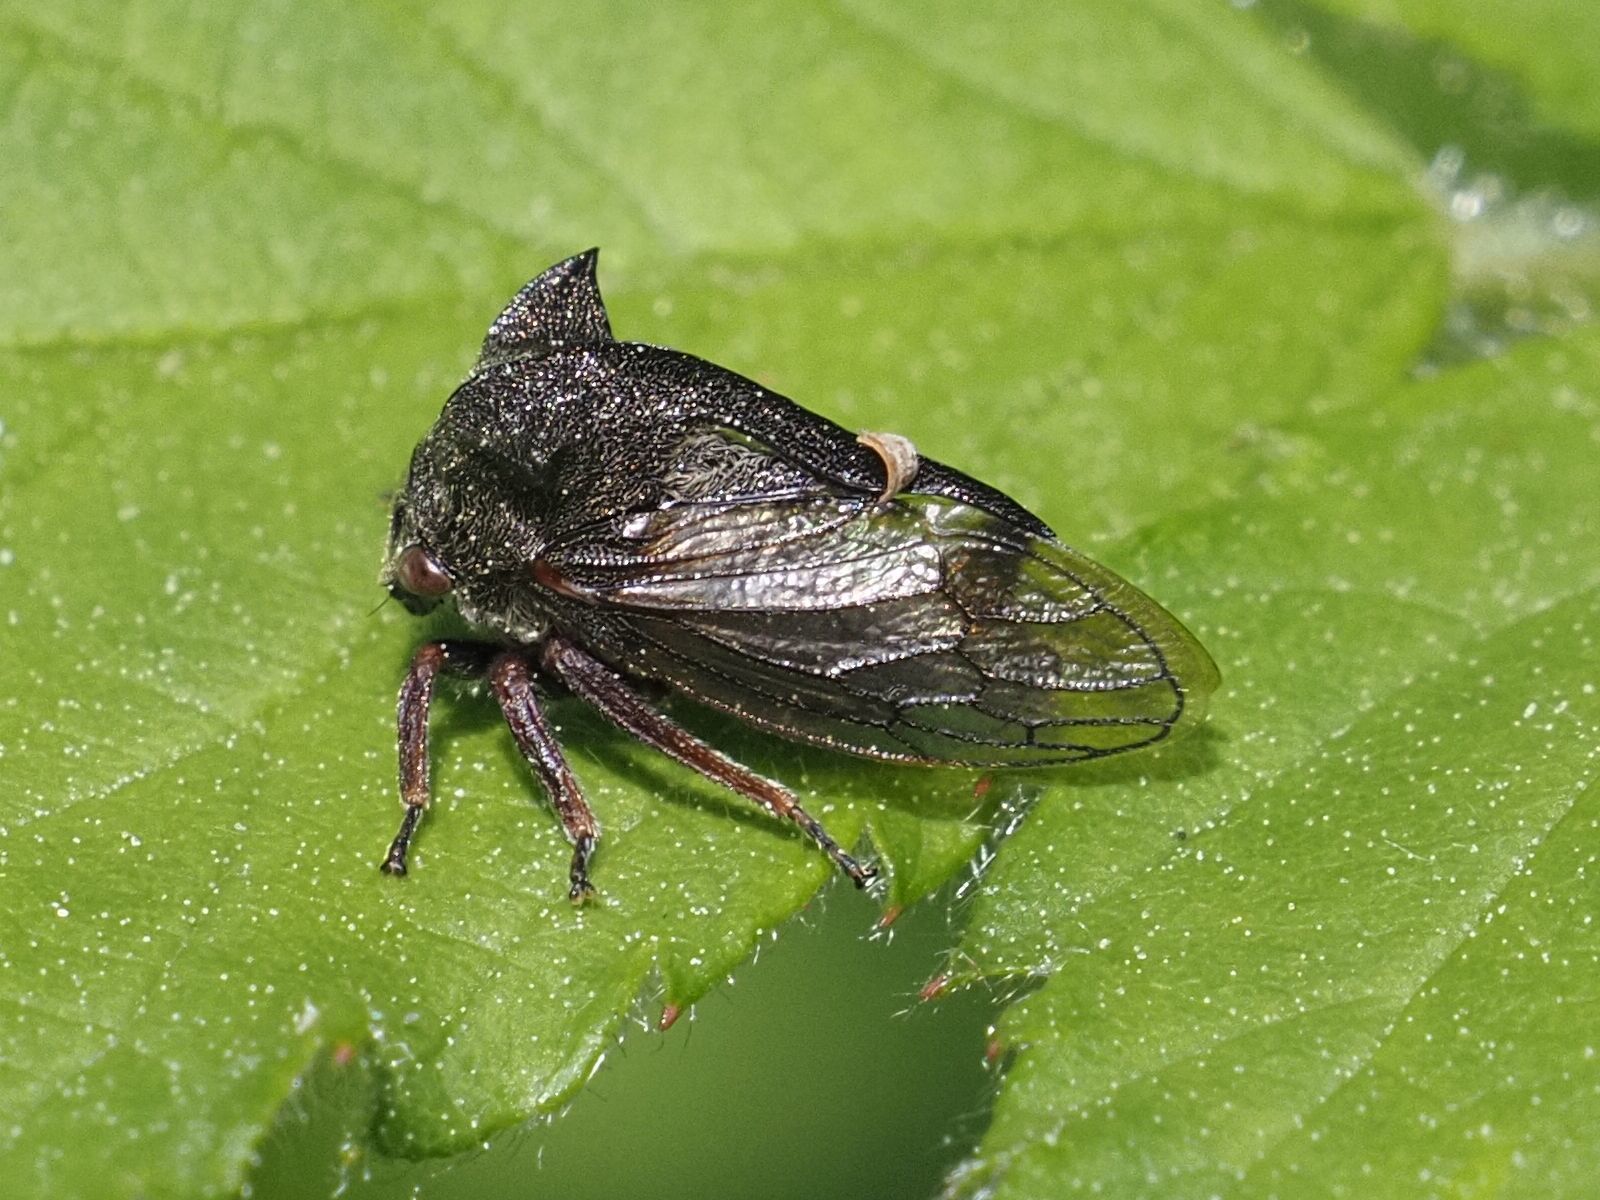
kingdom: Animalia
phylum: Arthropoda
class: Insecta
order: Hemiptera
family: Membracidae
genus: Centrotus
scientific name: Centrotus cornuta
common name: Treehopper
